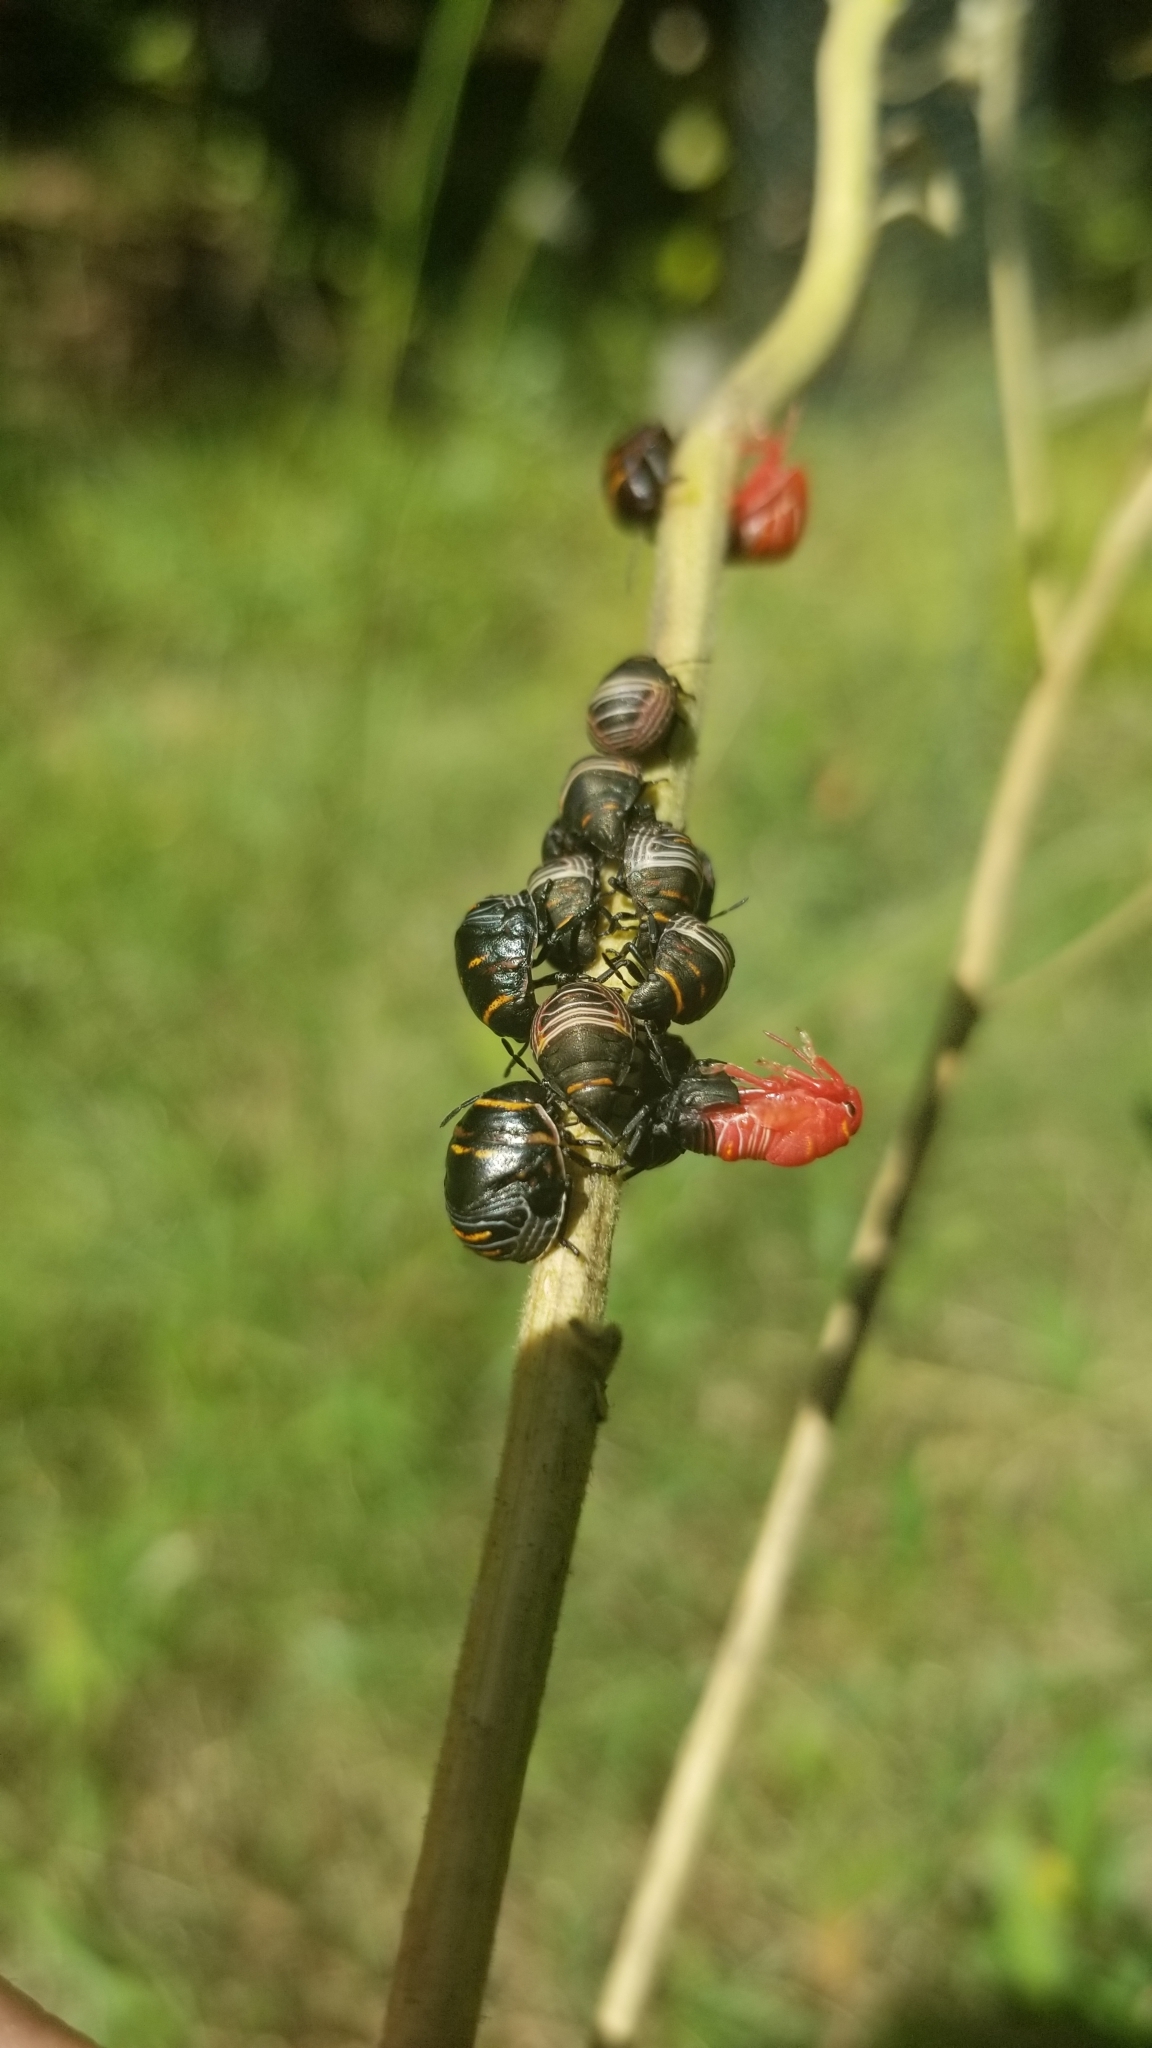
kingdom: Animalia
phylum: Arthropoda
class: Insecta
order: Hemiptera
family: Scutelleridae
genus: Orsilochides
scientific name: Orsilochides guttata
